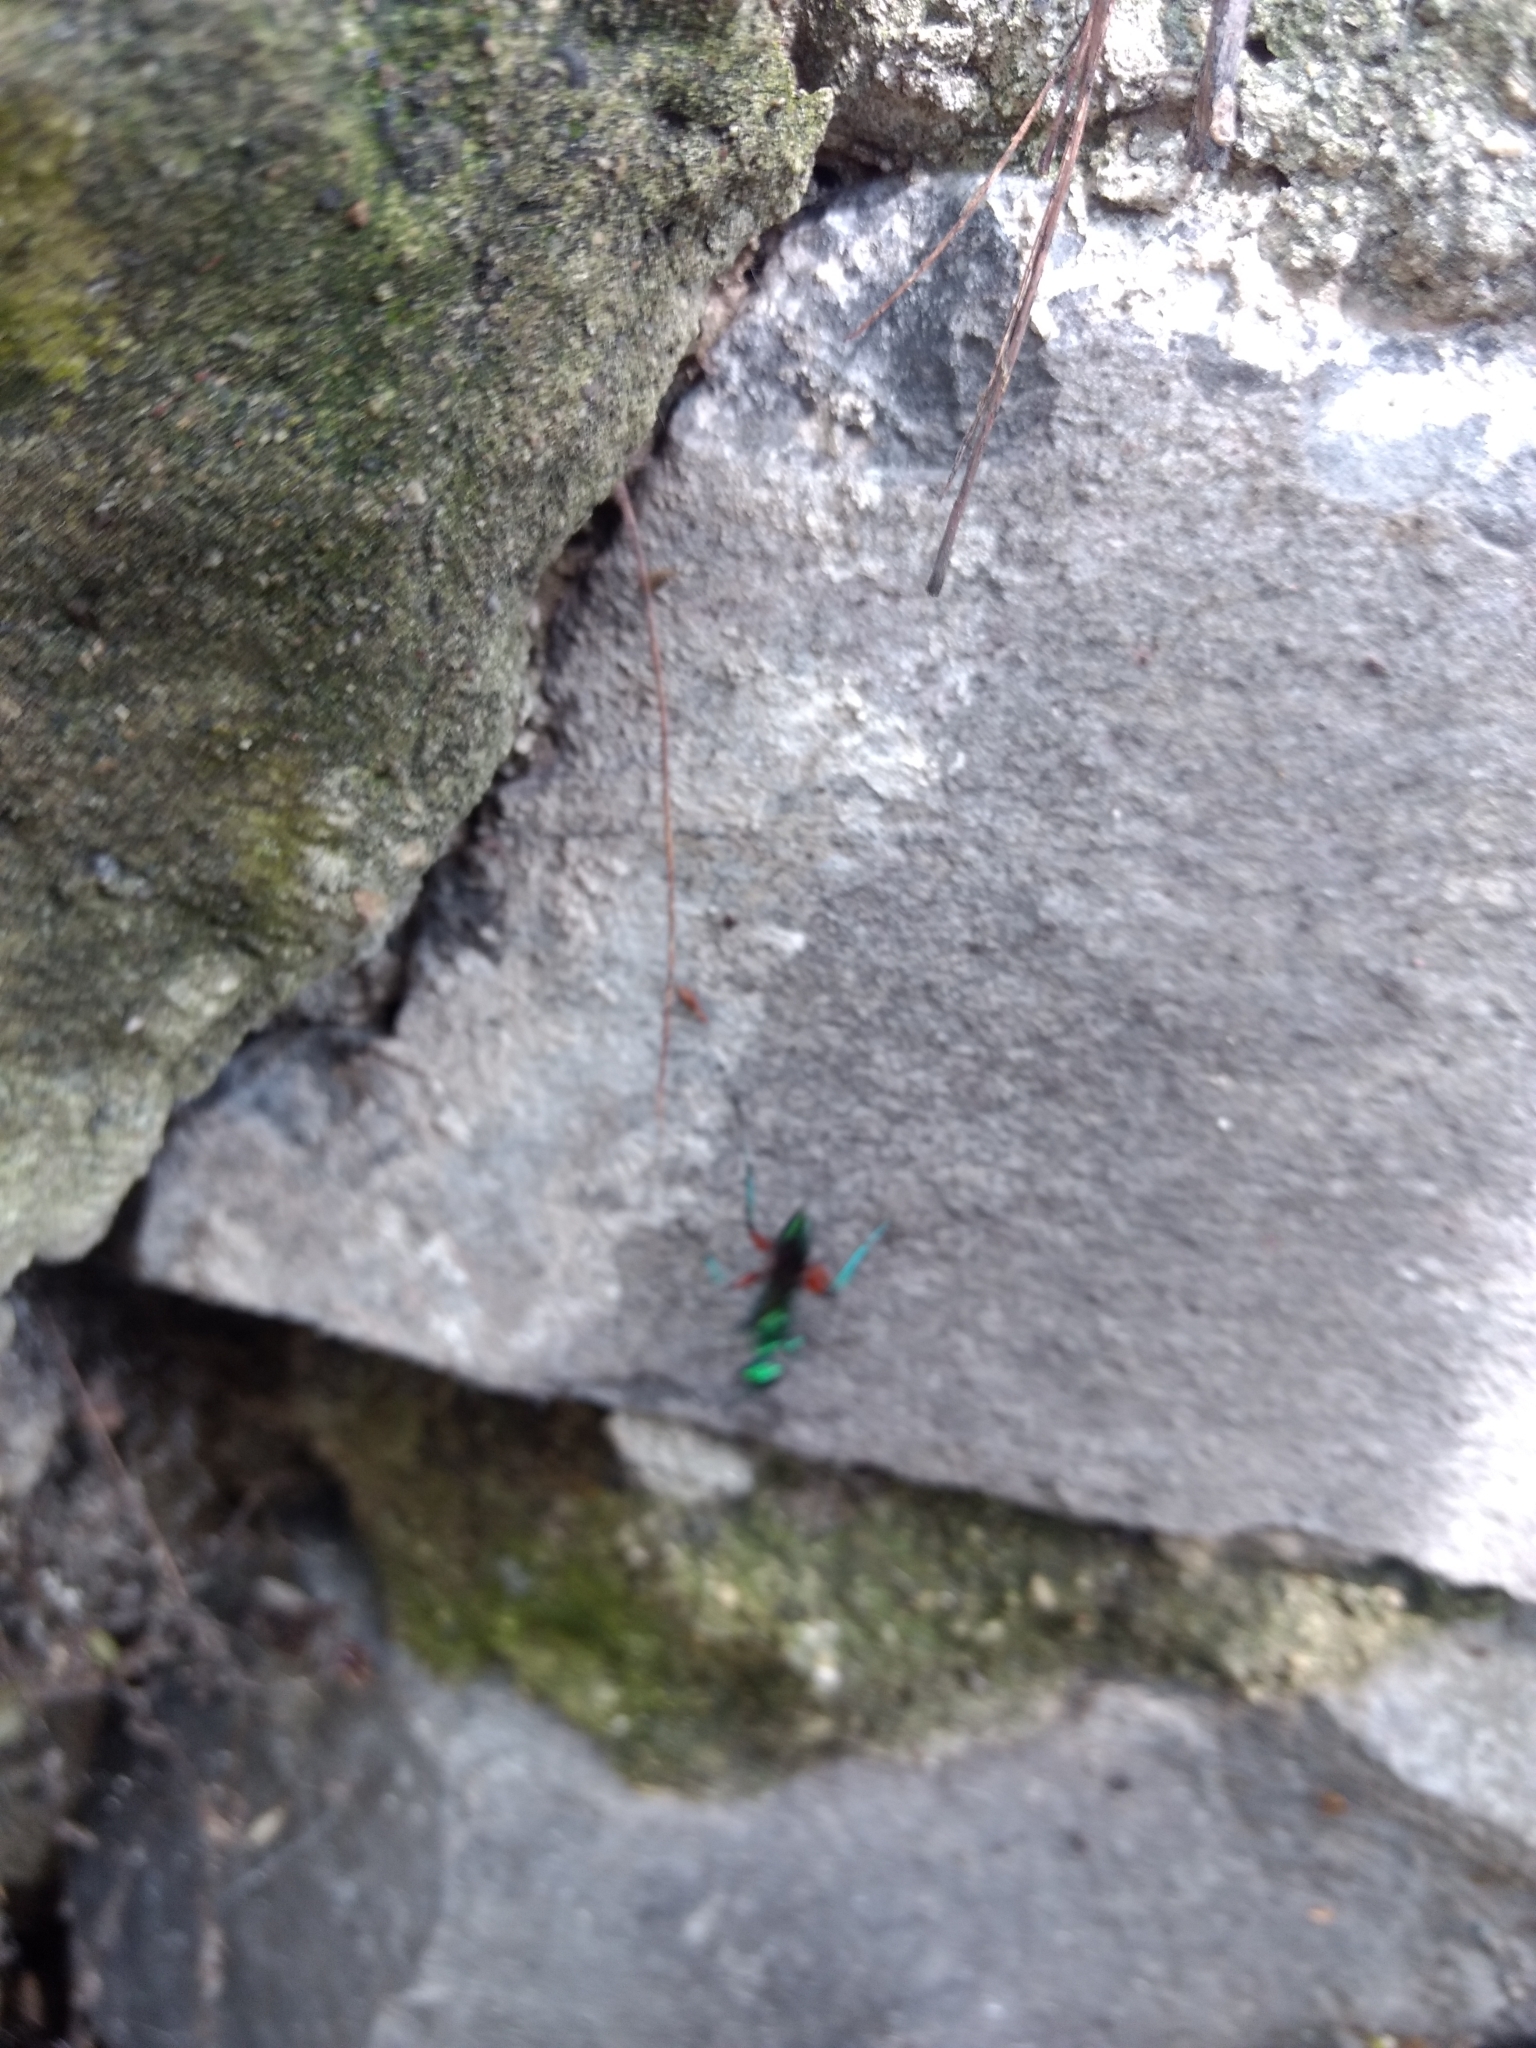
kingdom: Animalia
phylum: Arthropoda
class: Insecta
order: Hymenoptera
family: Ampulicidae
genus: Ampulex
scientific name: Ampulex compressa
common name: Emerald cockroach wasp
